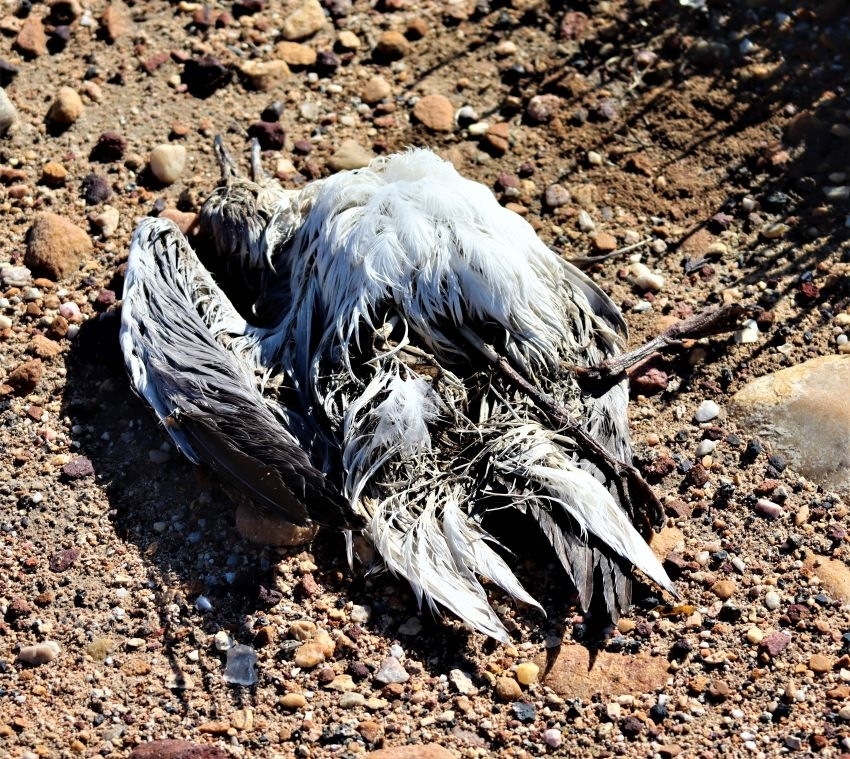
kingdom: Animalia
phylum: Chordata
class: Aves
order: Charadriiformes
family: Laridae
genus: Chroicocephalus
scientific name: Chroicocephalus cirrocephalus
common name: Grey-headed gull
